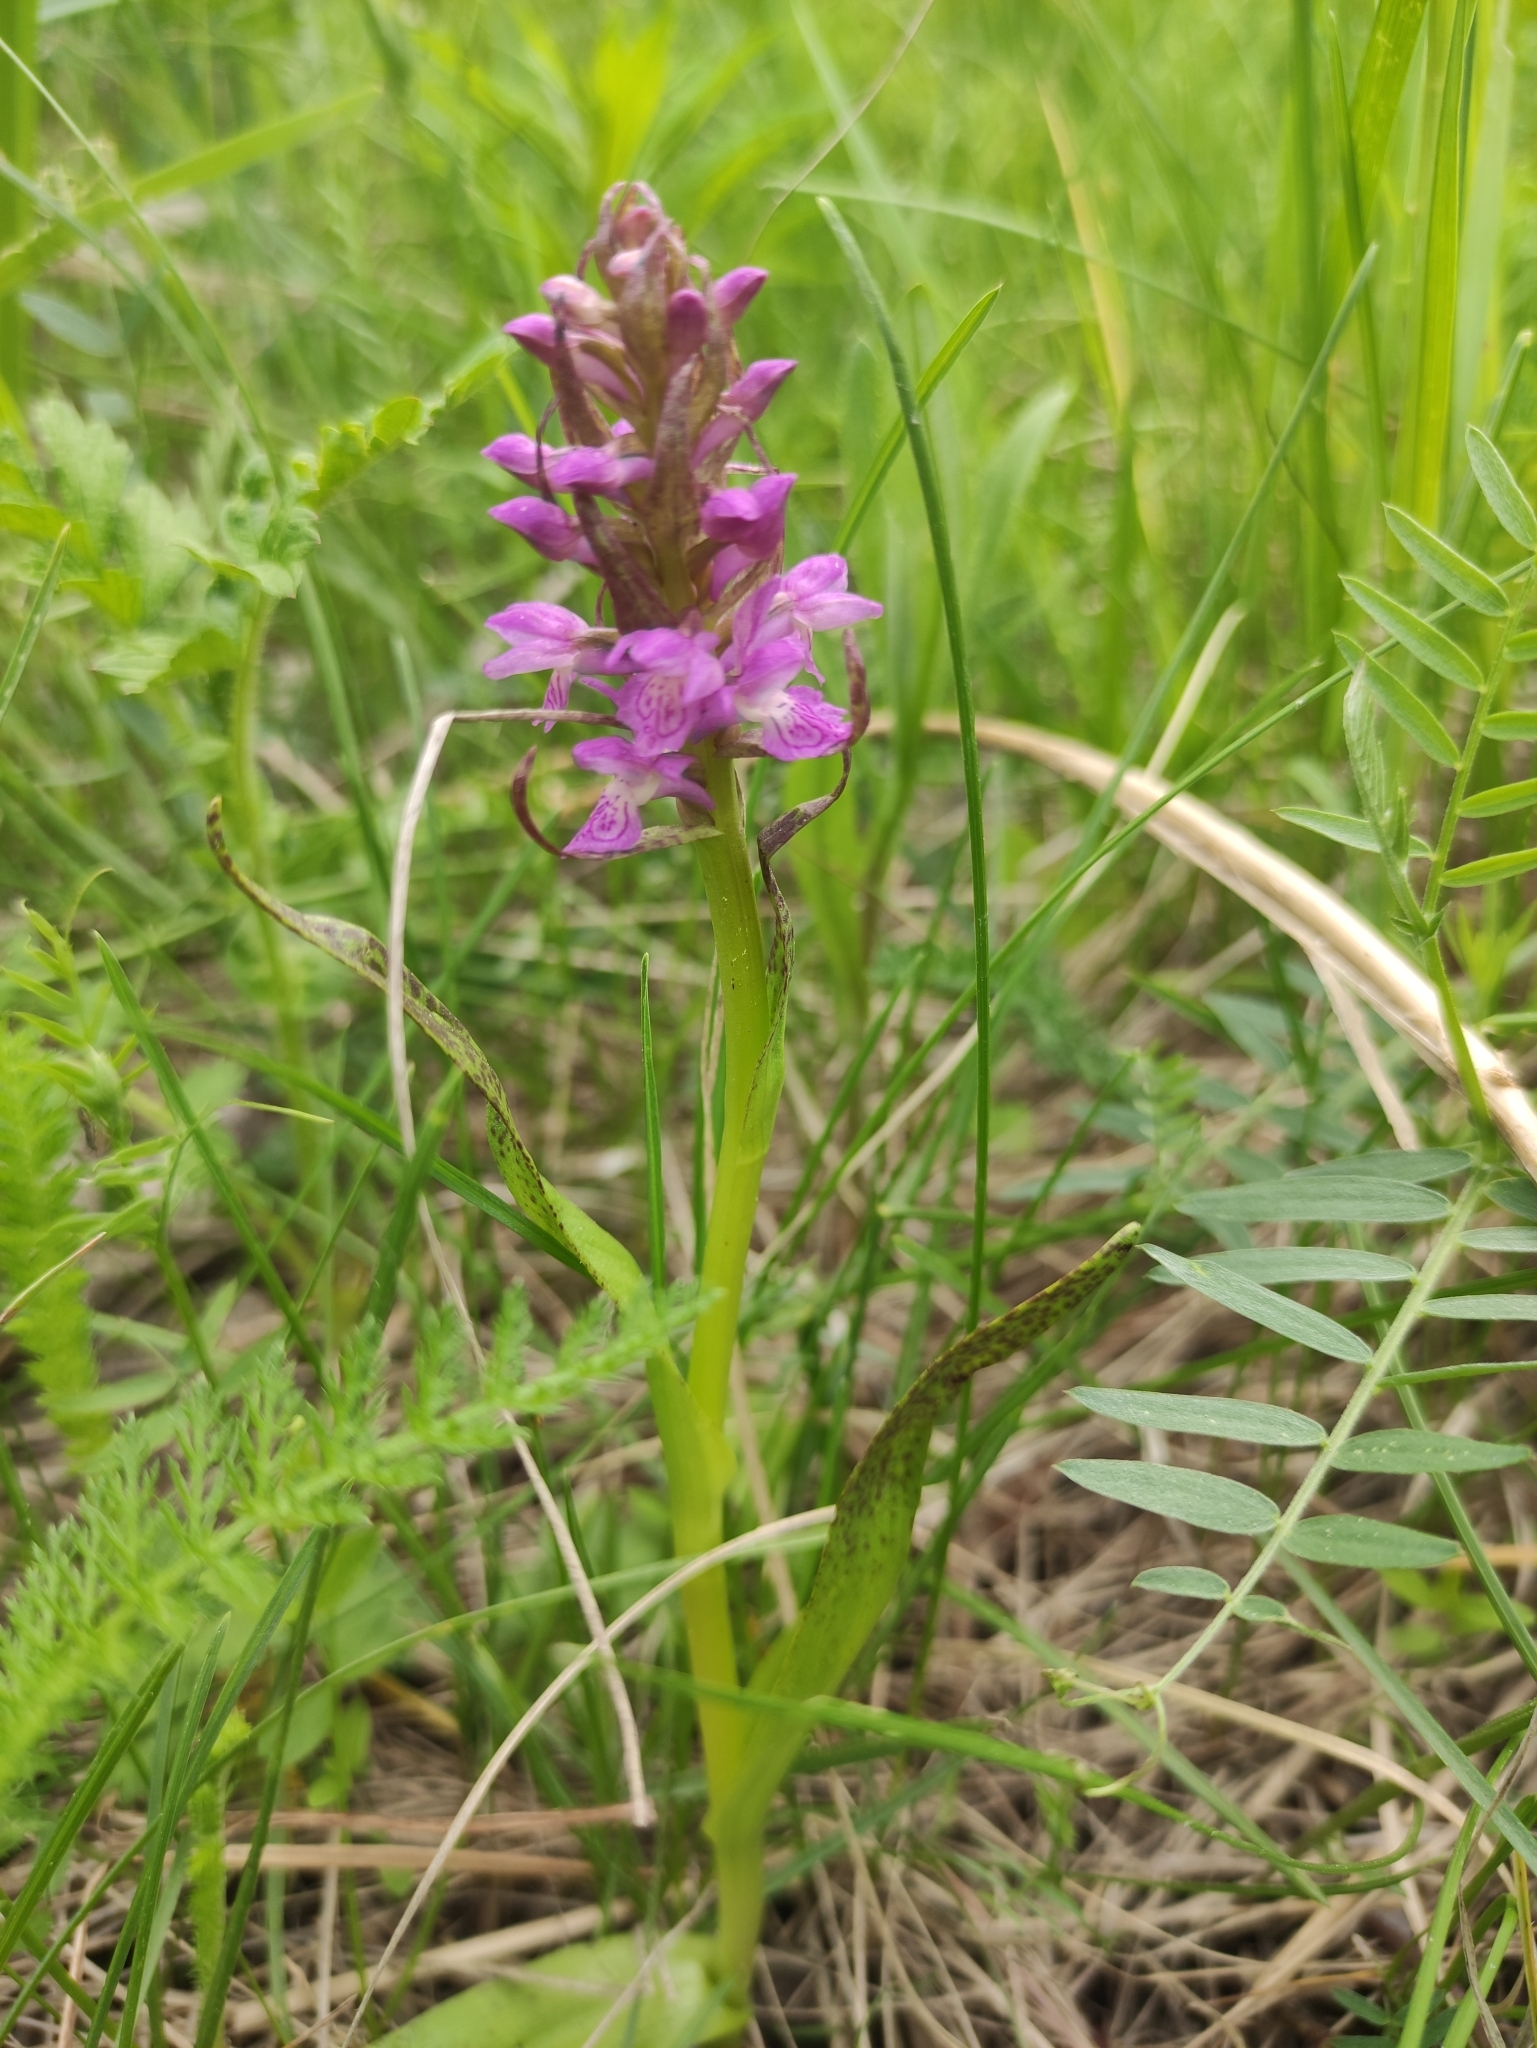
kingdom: Plantae
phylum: Tracheophyta
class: Liliopsida
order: Asparagales
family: Orchidaceae
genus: Dactylorhiza
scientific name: Dactylorhiza incarnata
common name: Early marsh-orchid
